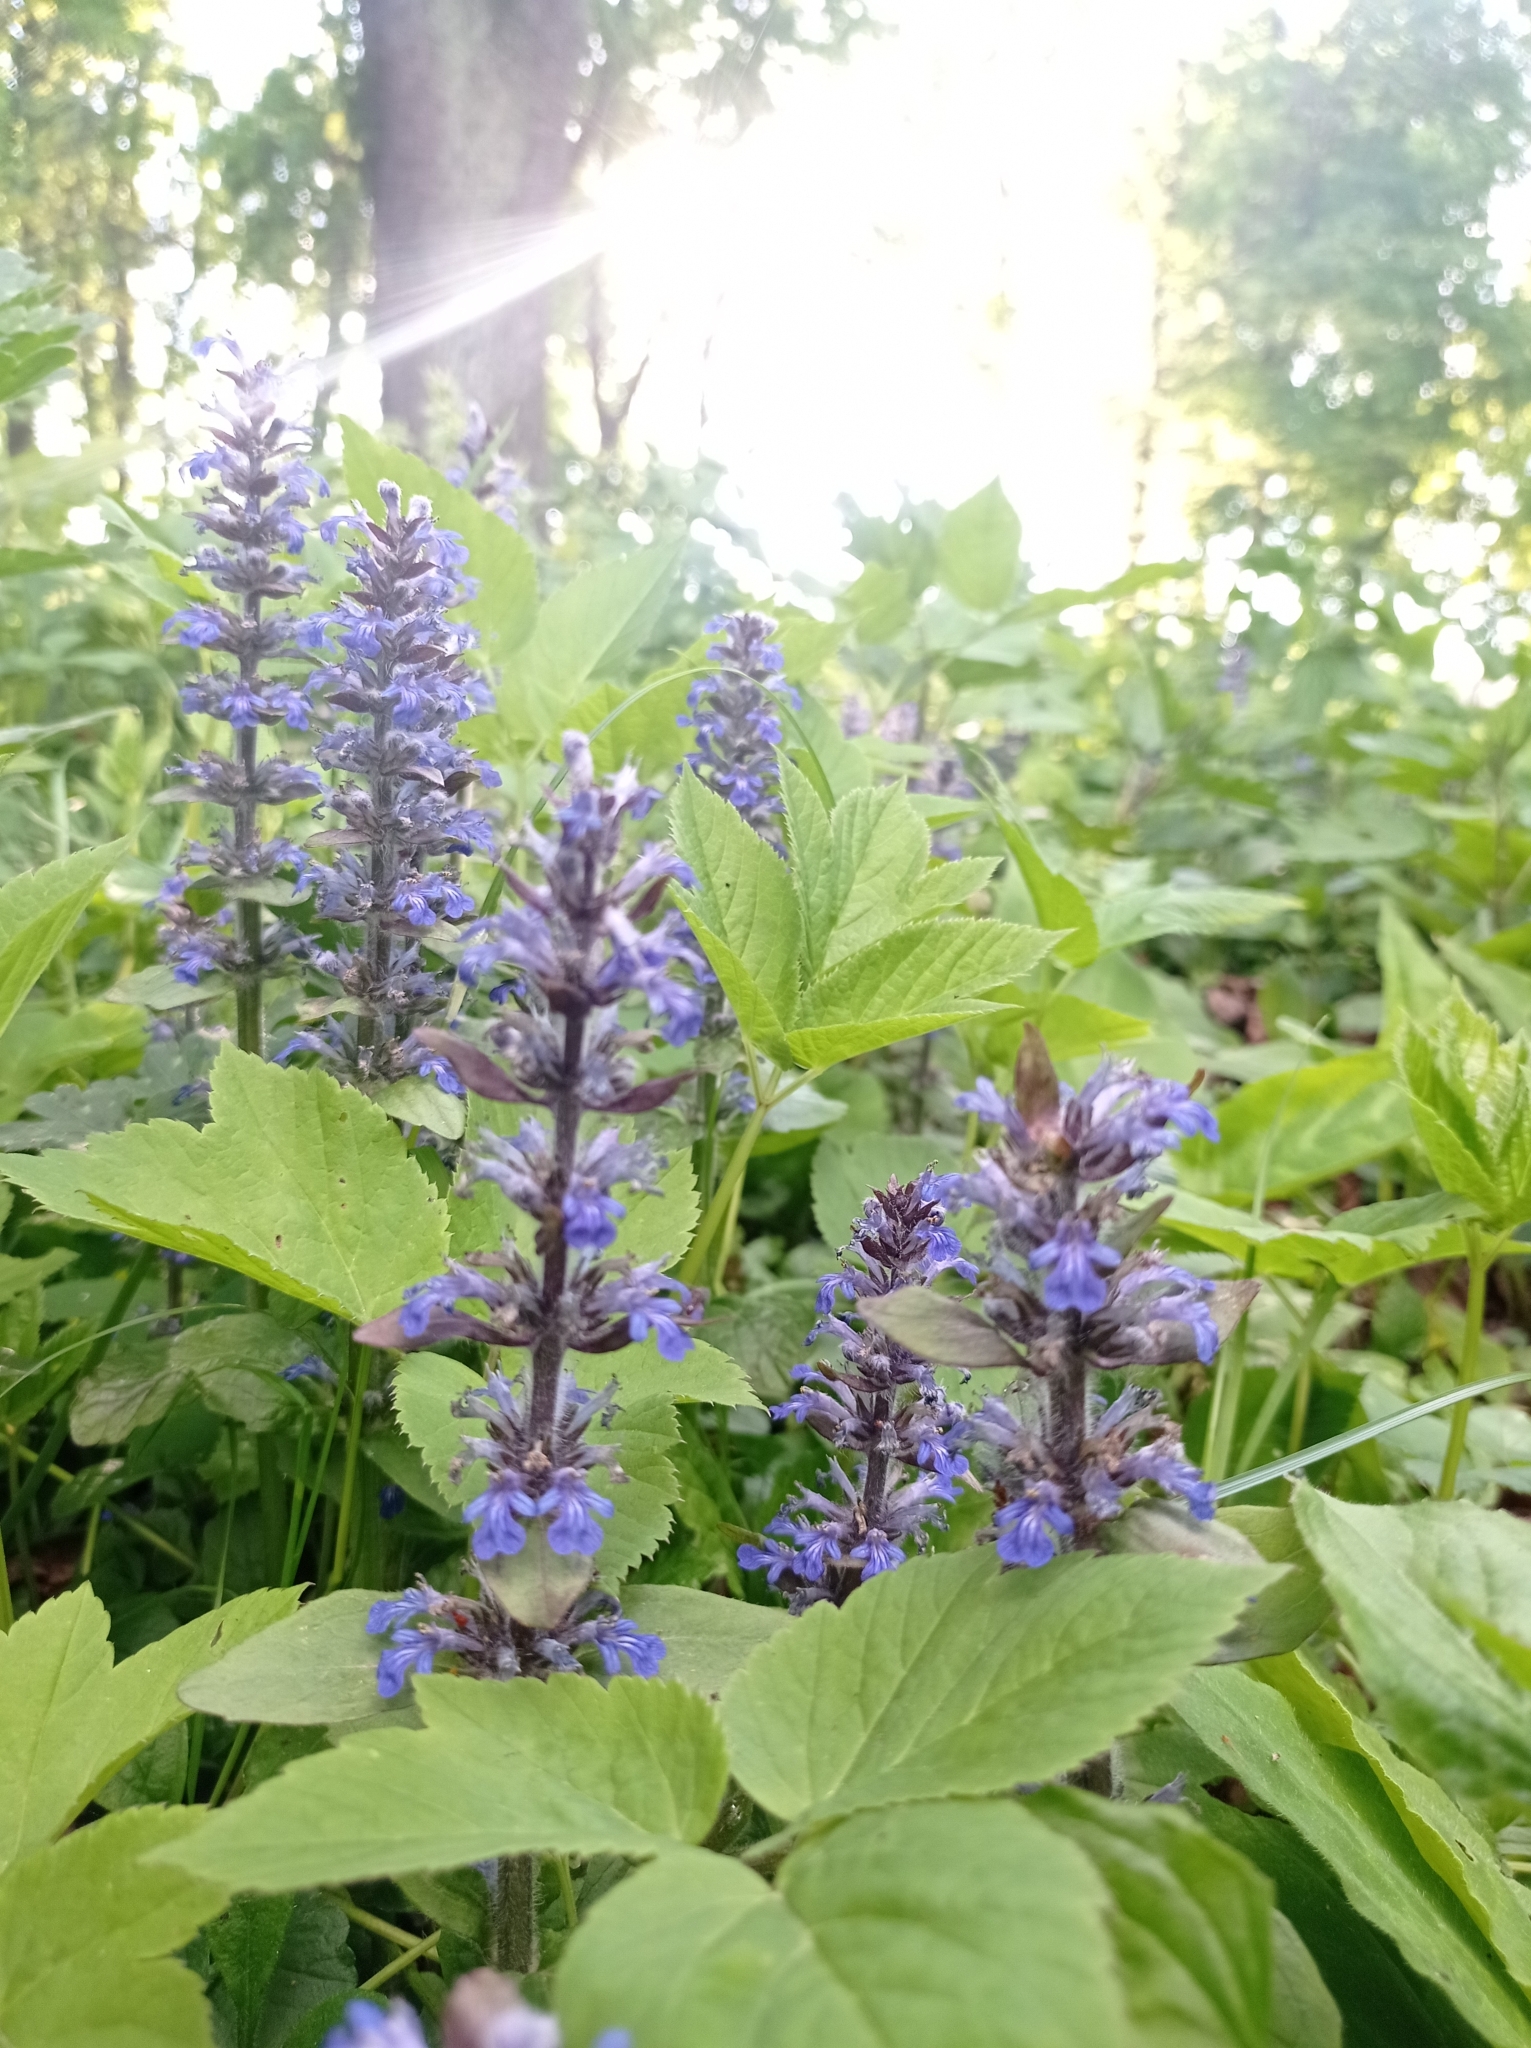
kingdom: Plantae
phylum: Tracheophyta
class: Magnoliopsida
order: Lamiales
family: Lamiaceae
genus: Ajuga
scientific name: Ajuga reptans
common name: Bugle
